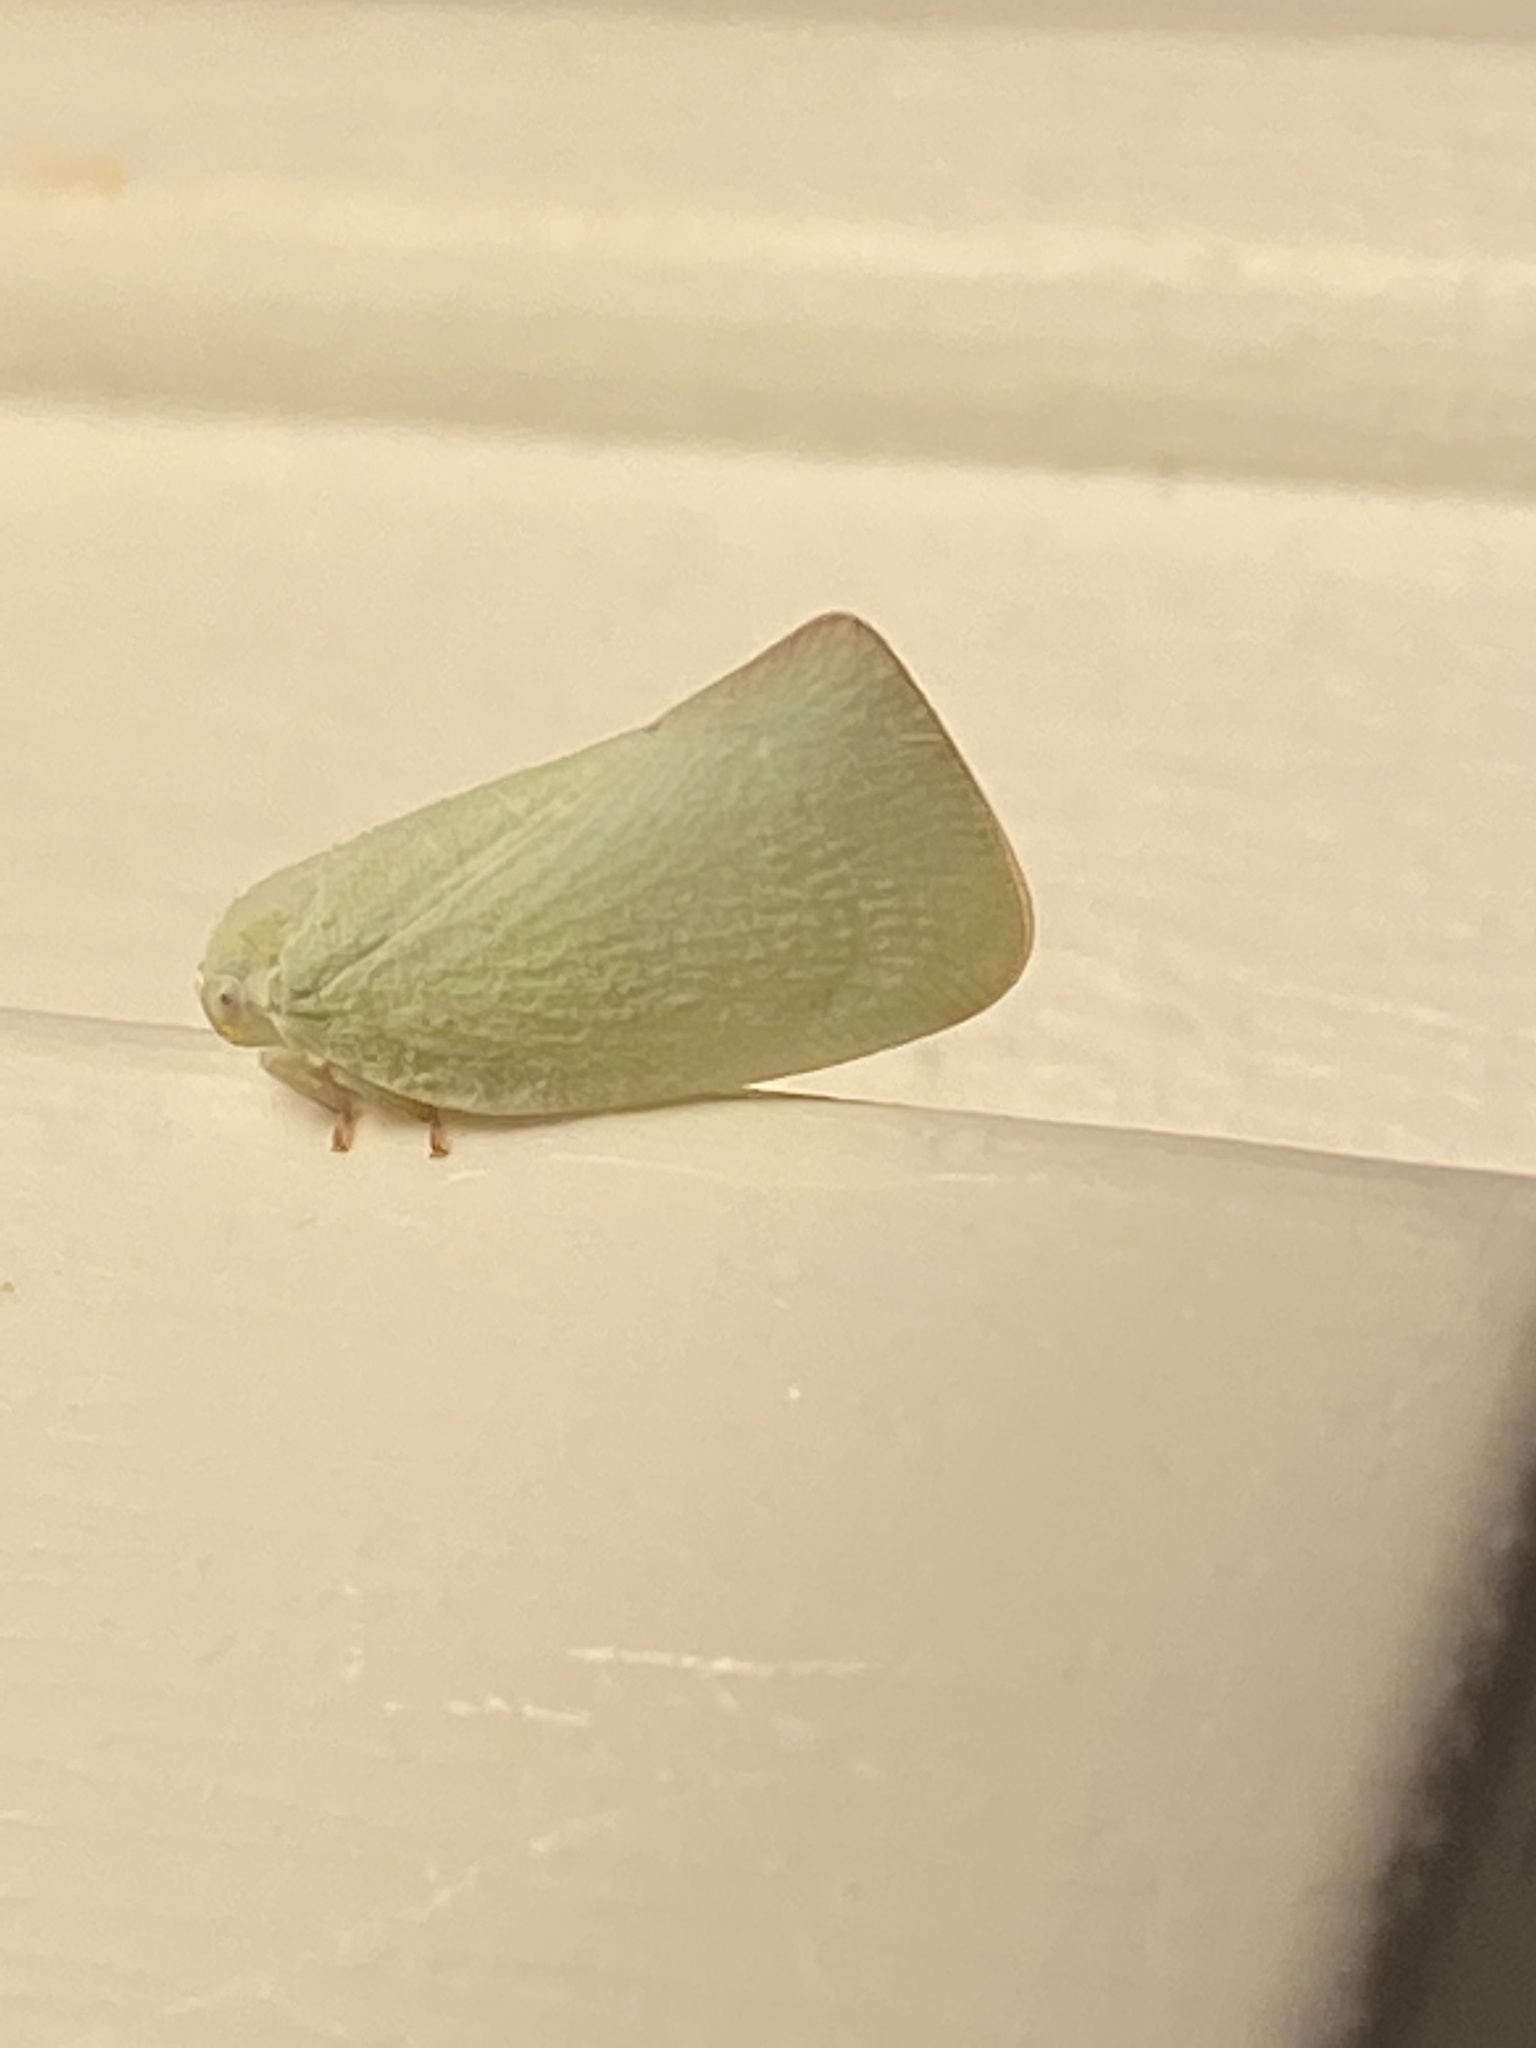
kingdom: Animalia
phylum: Arthropoda
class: Insecta
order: Hemiptera
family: Flatidae
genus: Flatormenis
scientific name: Flatormenis proxima
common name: Northern flatid planthopper
